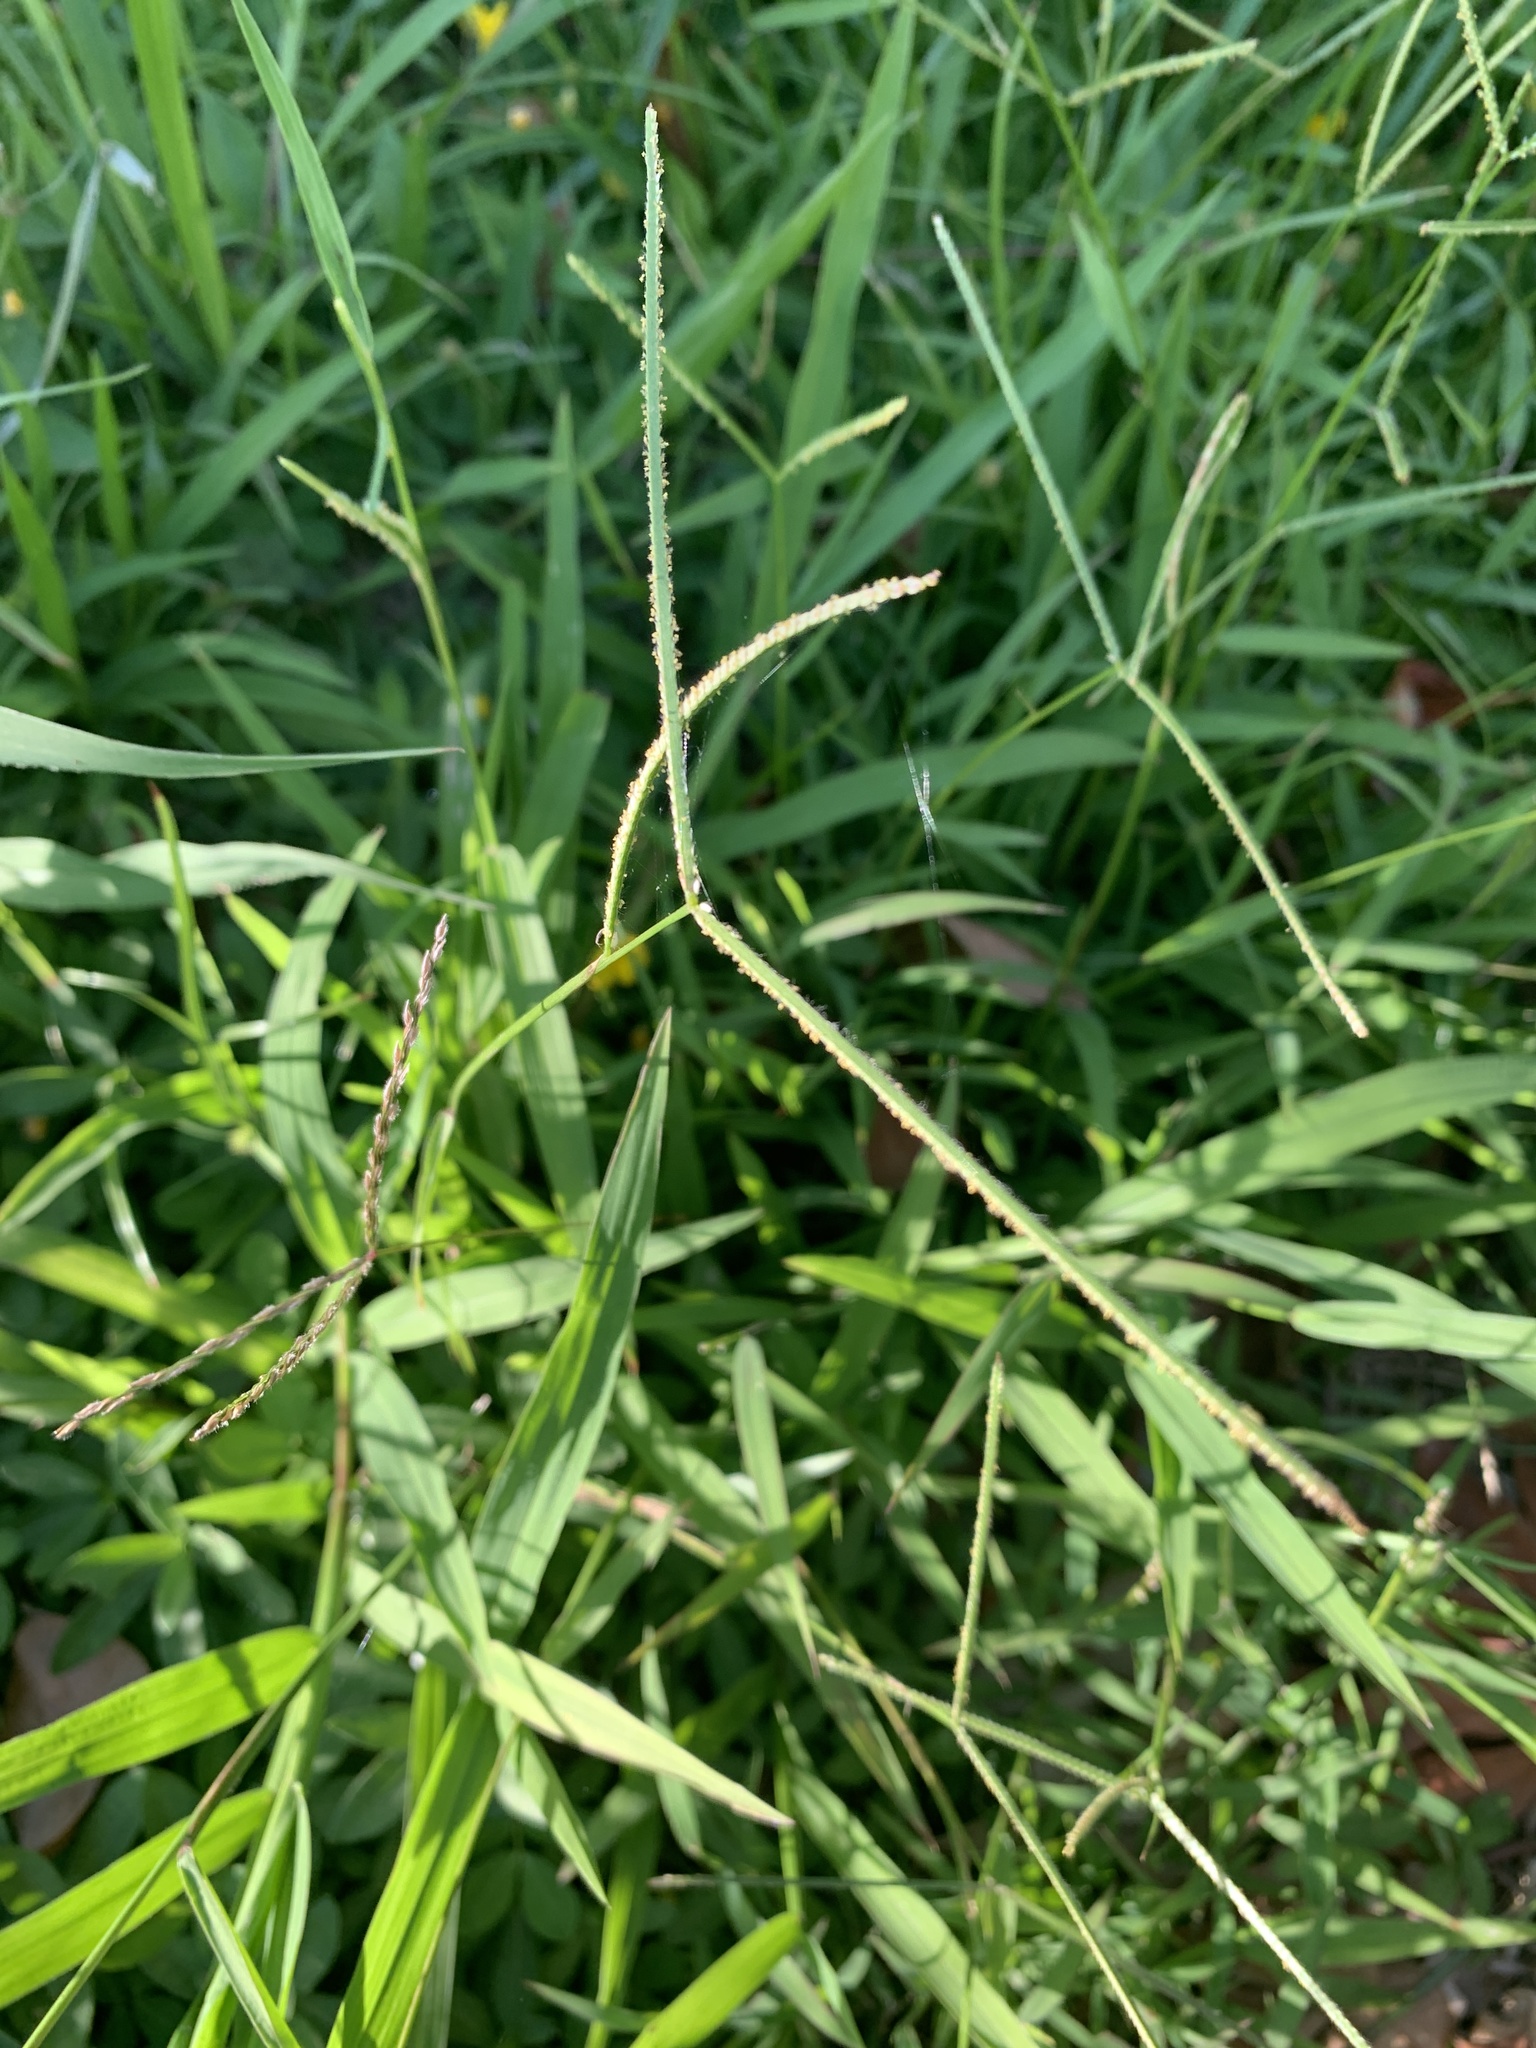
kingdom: Plantae
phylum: Tracheophyta
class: Liliopsida
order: Poales
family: Poaceae
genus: Paspalum
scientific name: Paspalum conjugatum
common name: Hilograss
